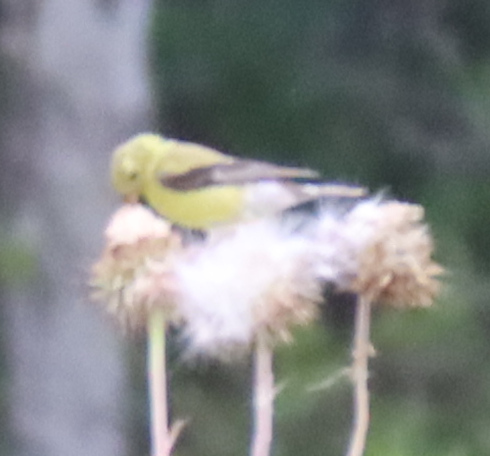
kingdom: Animalia
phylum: Chordata
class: Aves
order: Passeriformes
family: Fringillidae
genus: Spinus
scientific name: Spinus tristis
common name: American goldfinch
